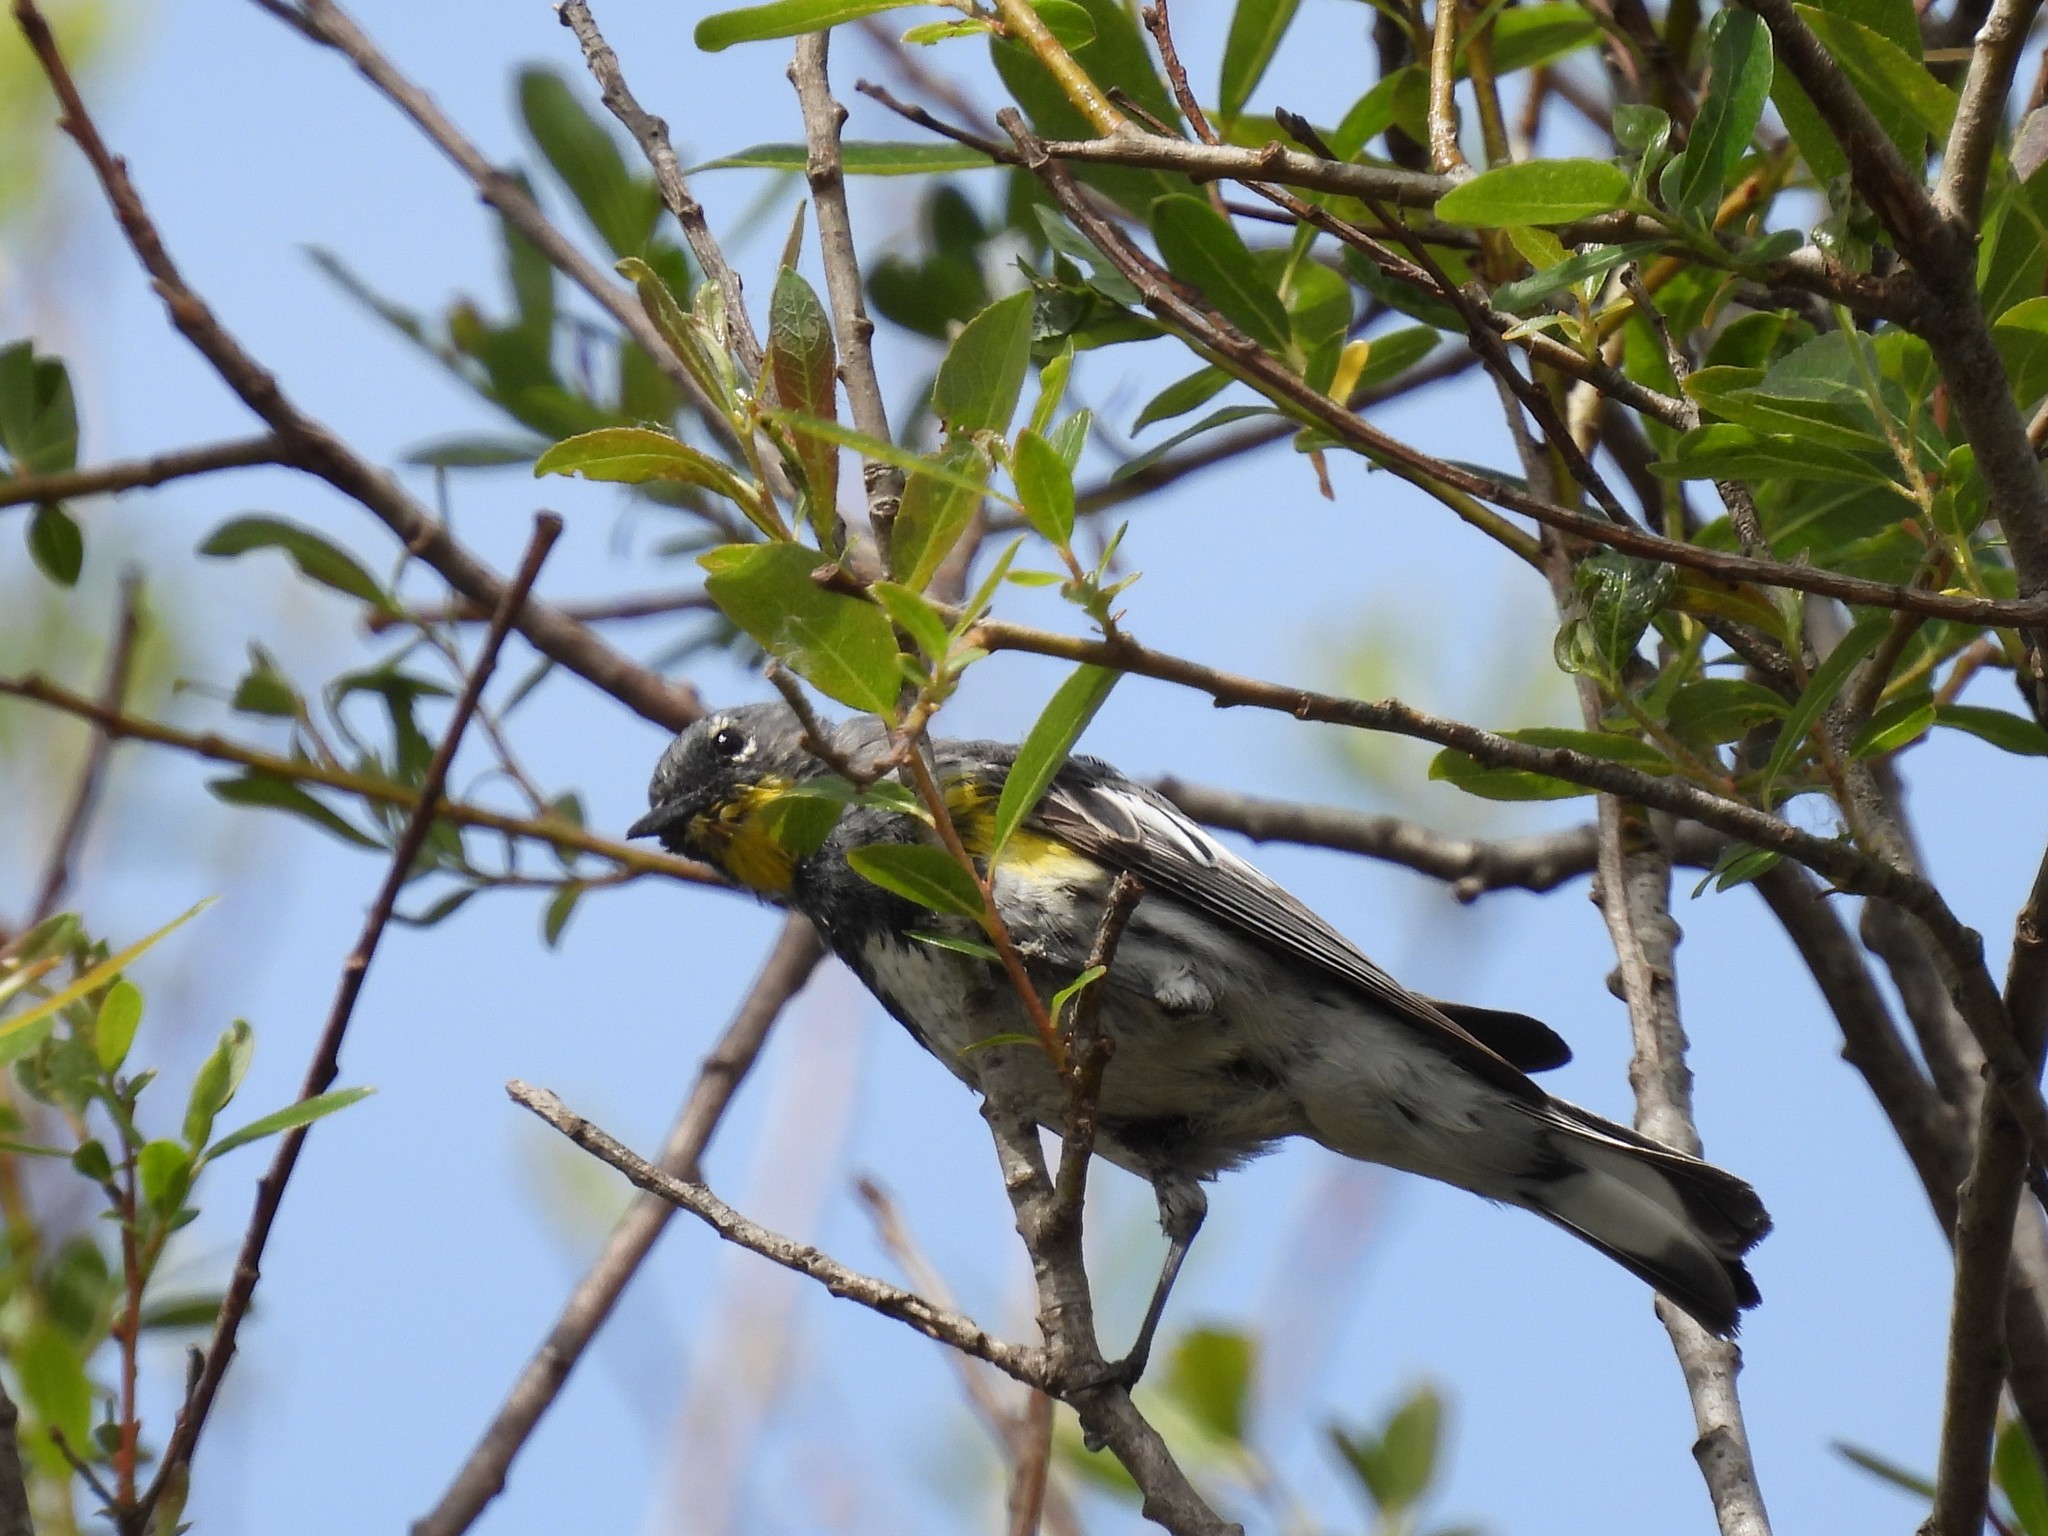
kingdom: Animalia
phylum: Chordata
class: Aves
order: Passeriformes
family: Parulidae
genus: Setophaga
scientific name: Setophaga coronata
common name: Myrtle warbler
